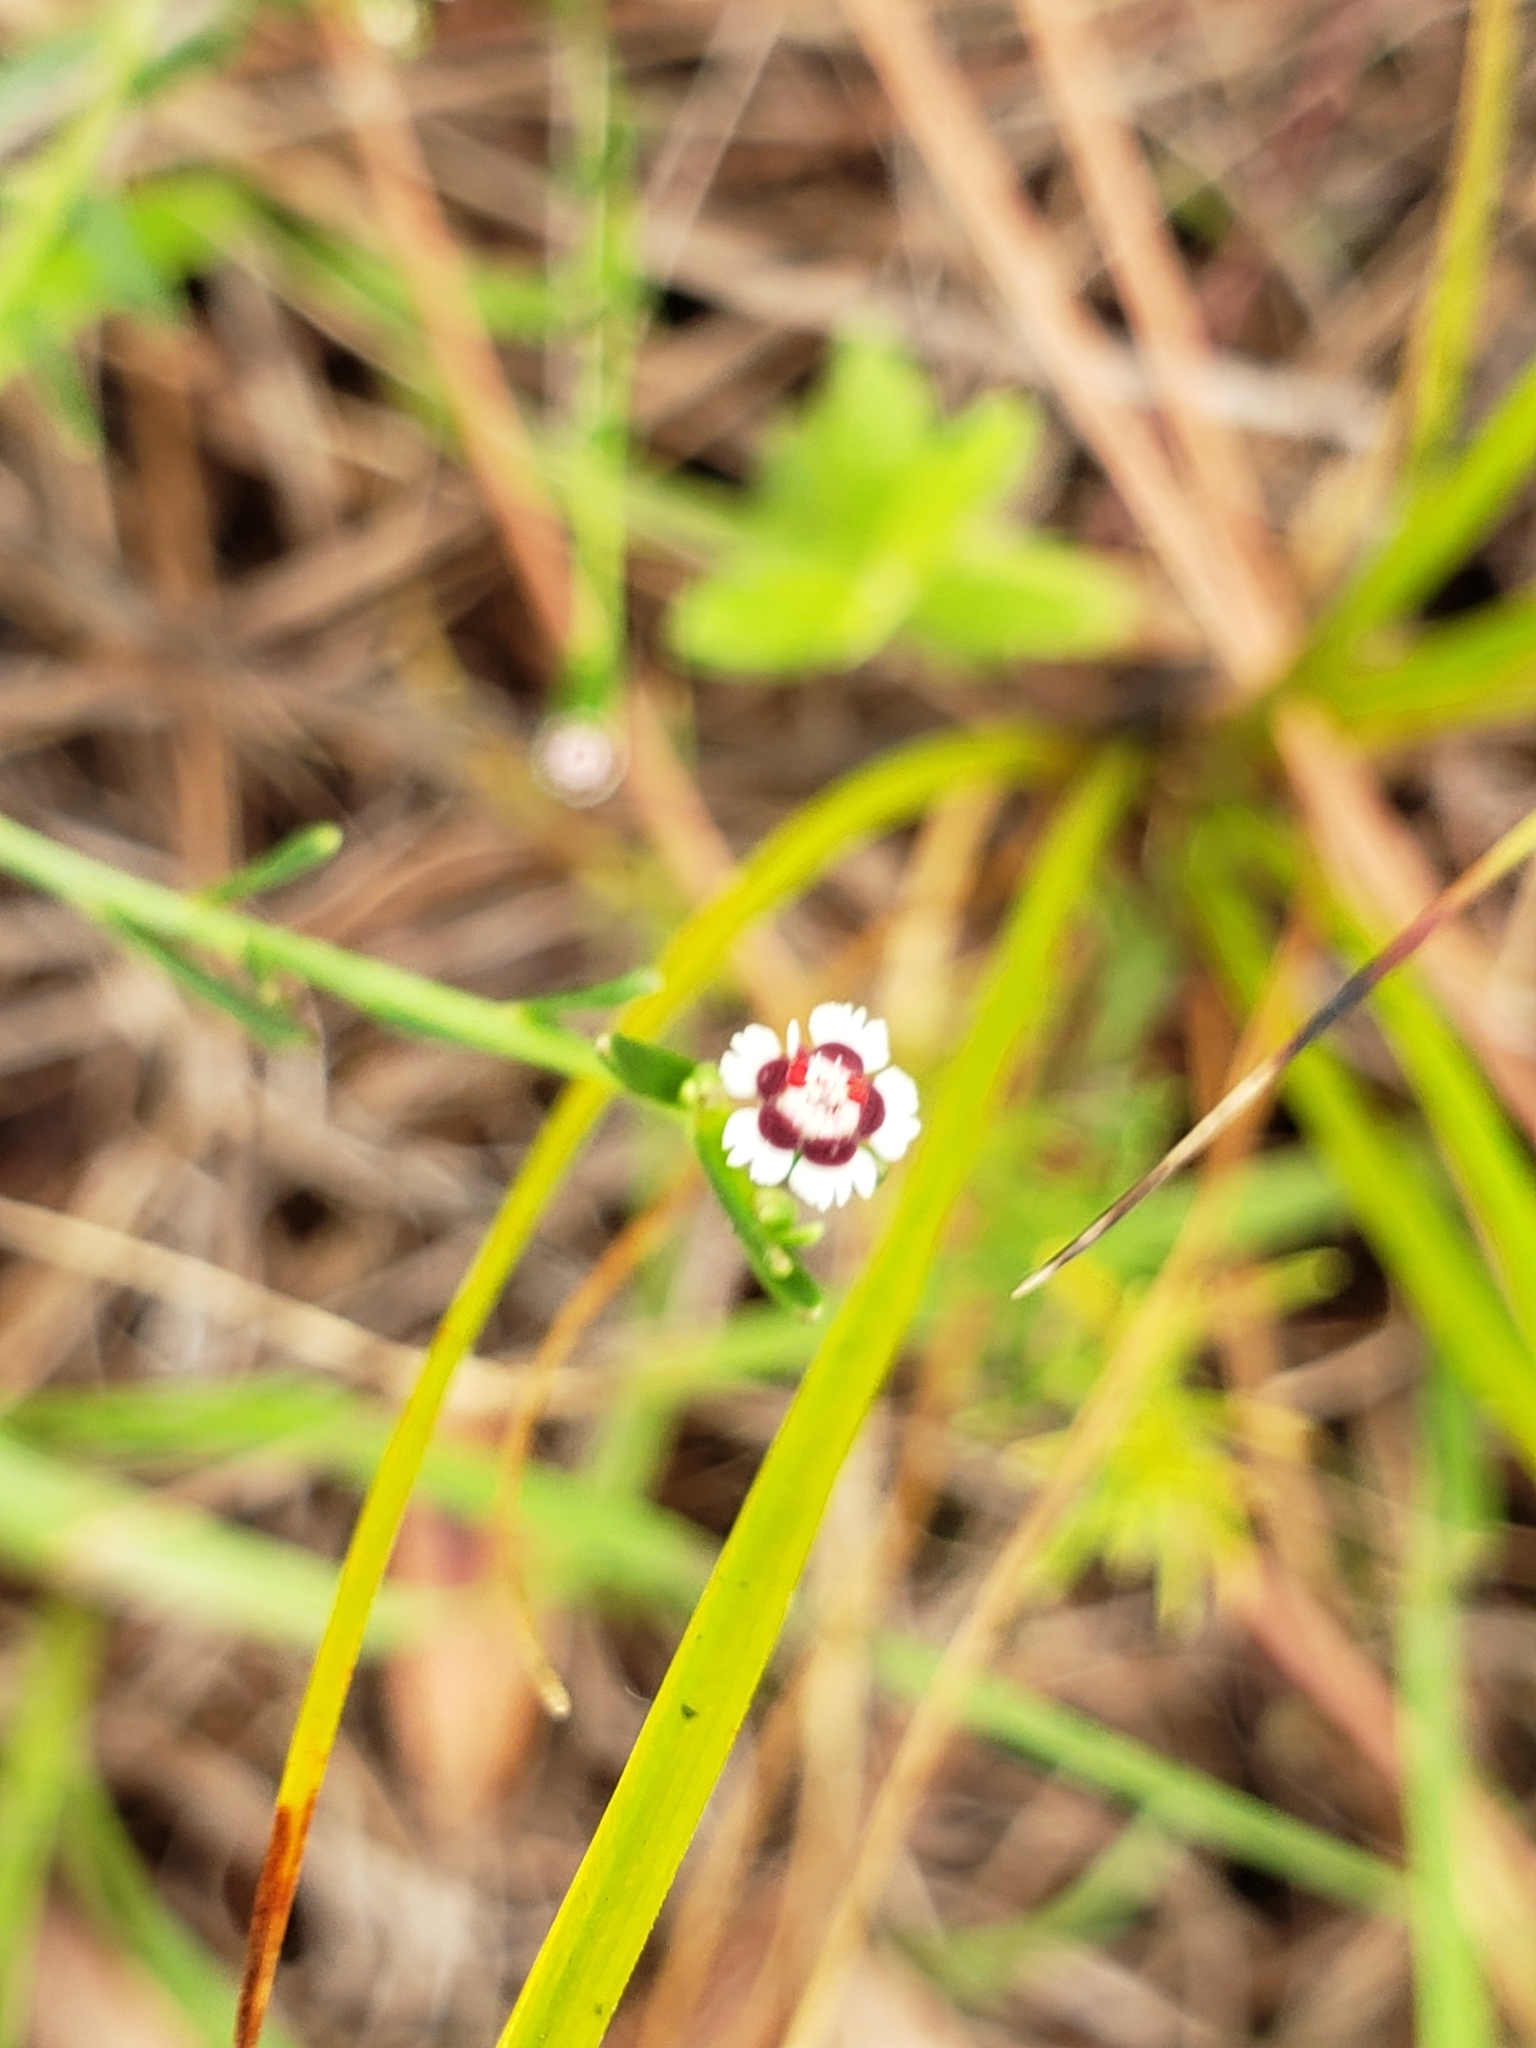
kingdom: Plantae
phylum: Tracheophyta
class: Magnoliopsida
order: Malpighiales
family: Euphorbiaceae
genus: Euphorbia
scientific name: Euphorbia polyphylla
